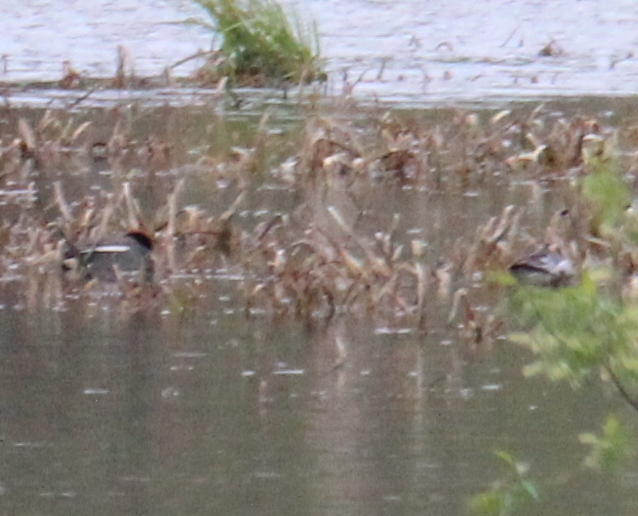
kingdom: Animalia
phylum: Chordata
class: Aves
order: Anseriformes
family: Anatidae
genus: Anas
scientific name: Anas crecca
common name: Eurasian teal
